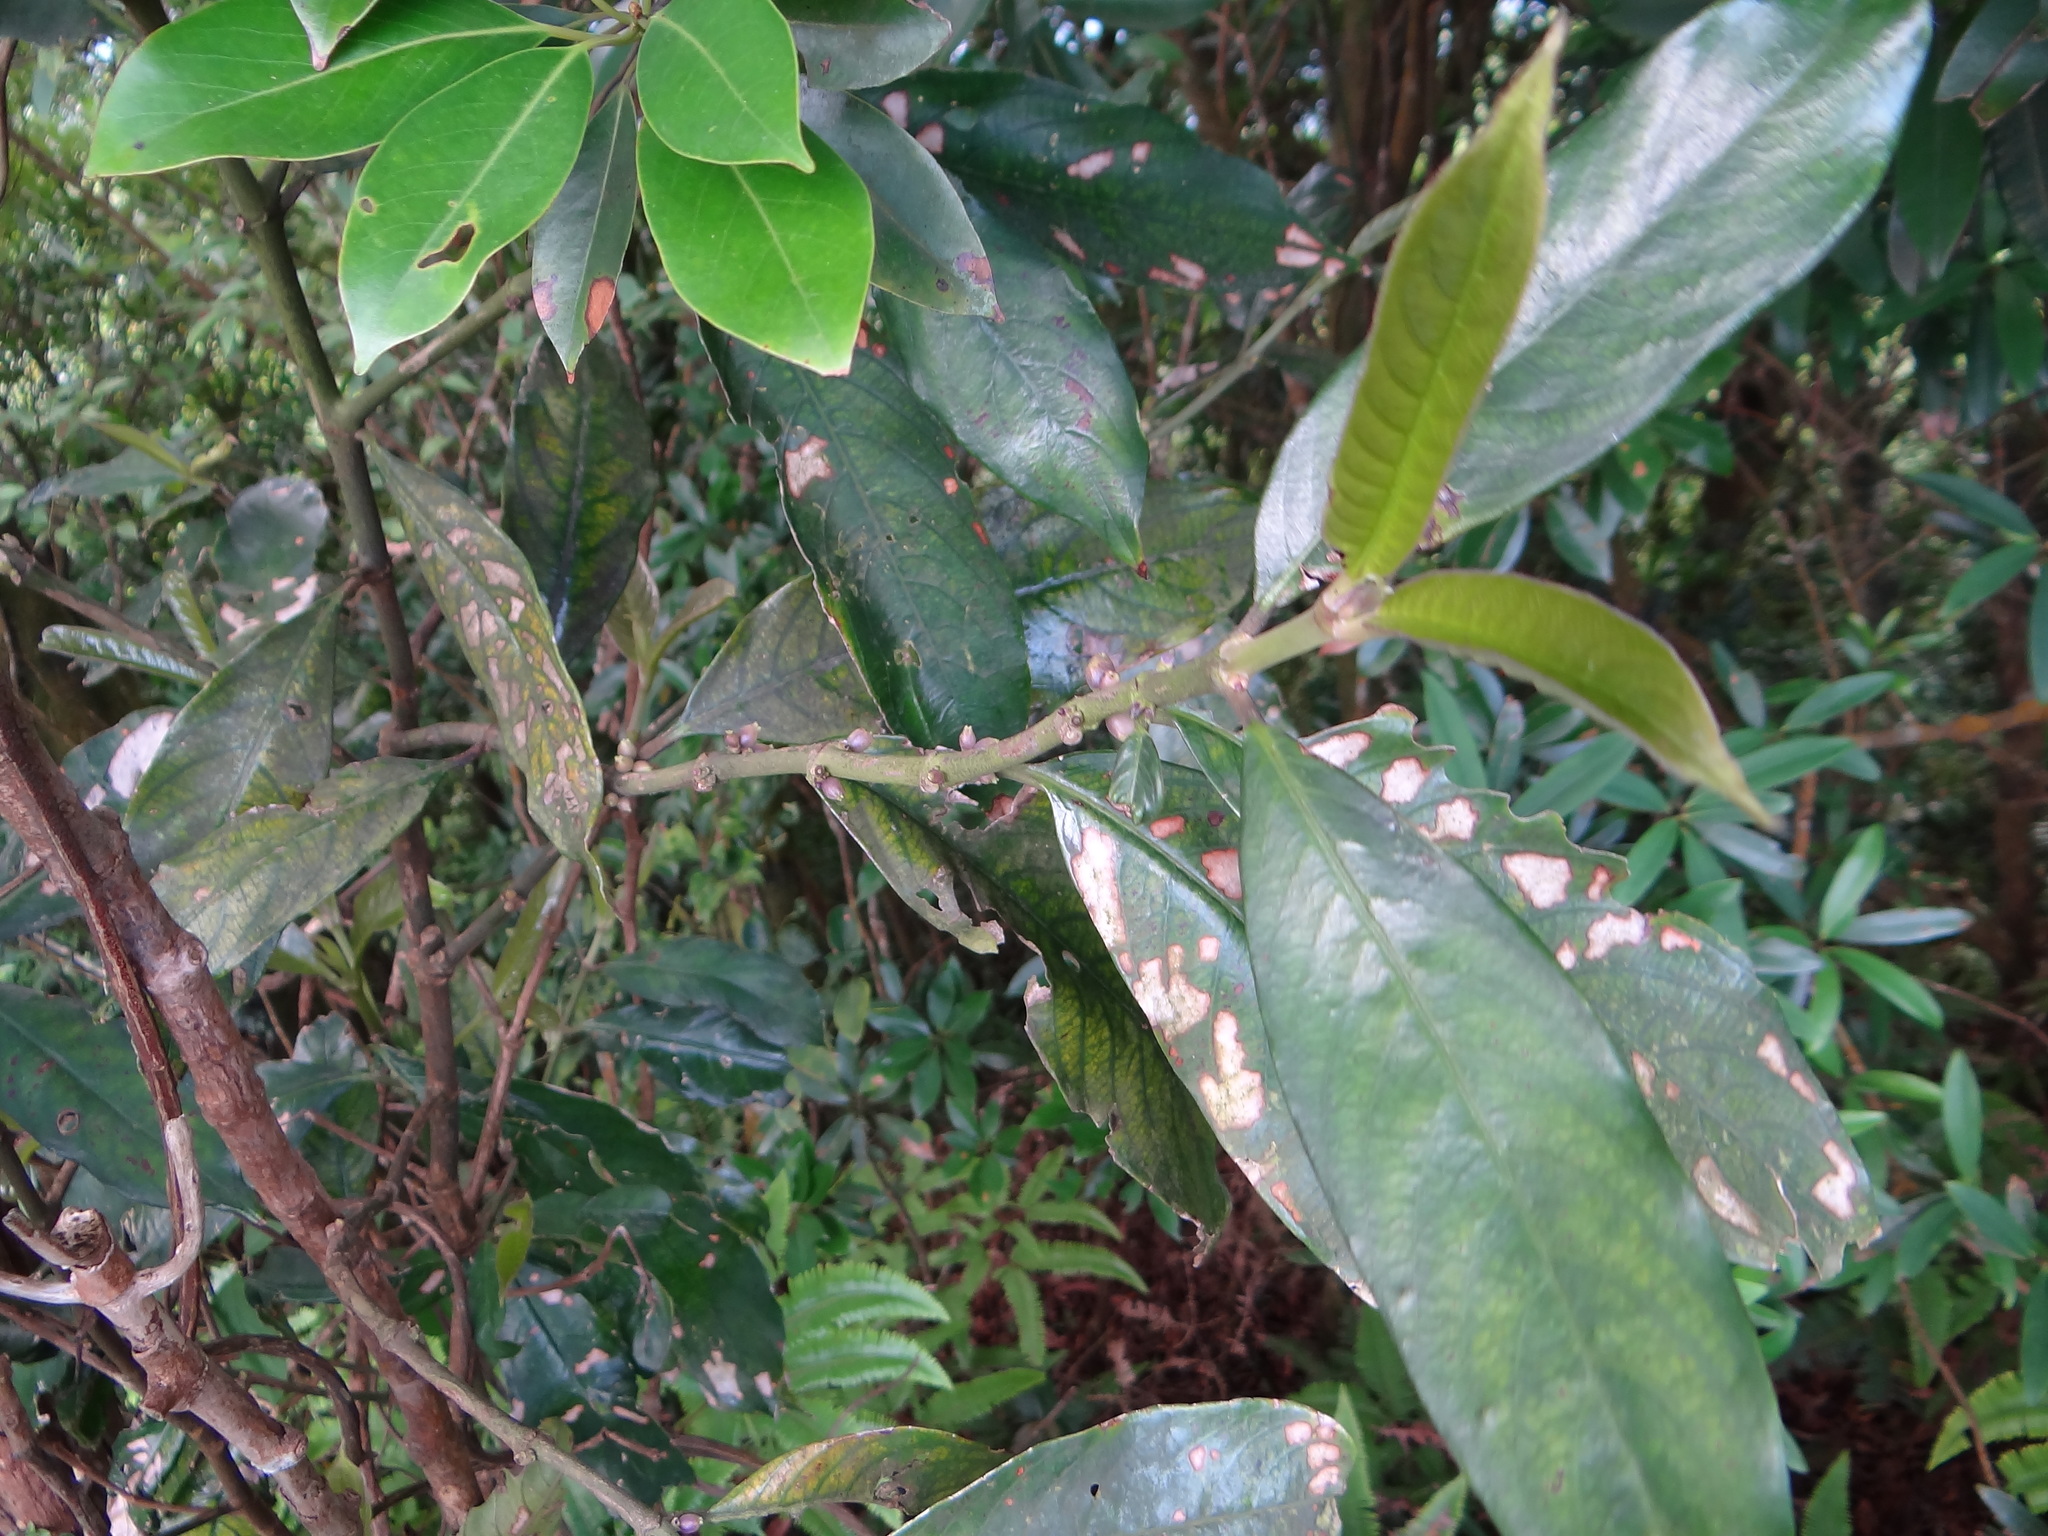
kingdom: Plantae
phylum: Tracheophyta
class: Magnoliopsida
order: Gentianales
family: Rubiaceae
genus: Lasianthus
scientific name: Lasianthus verticillatus
